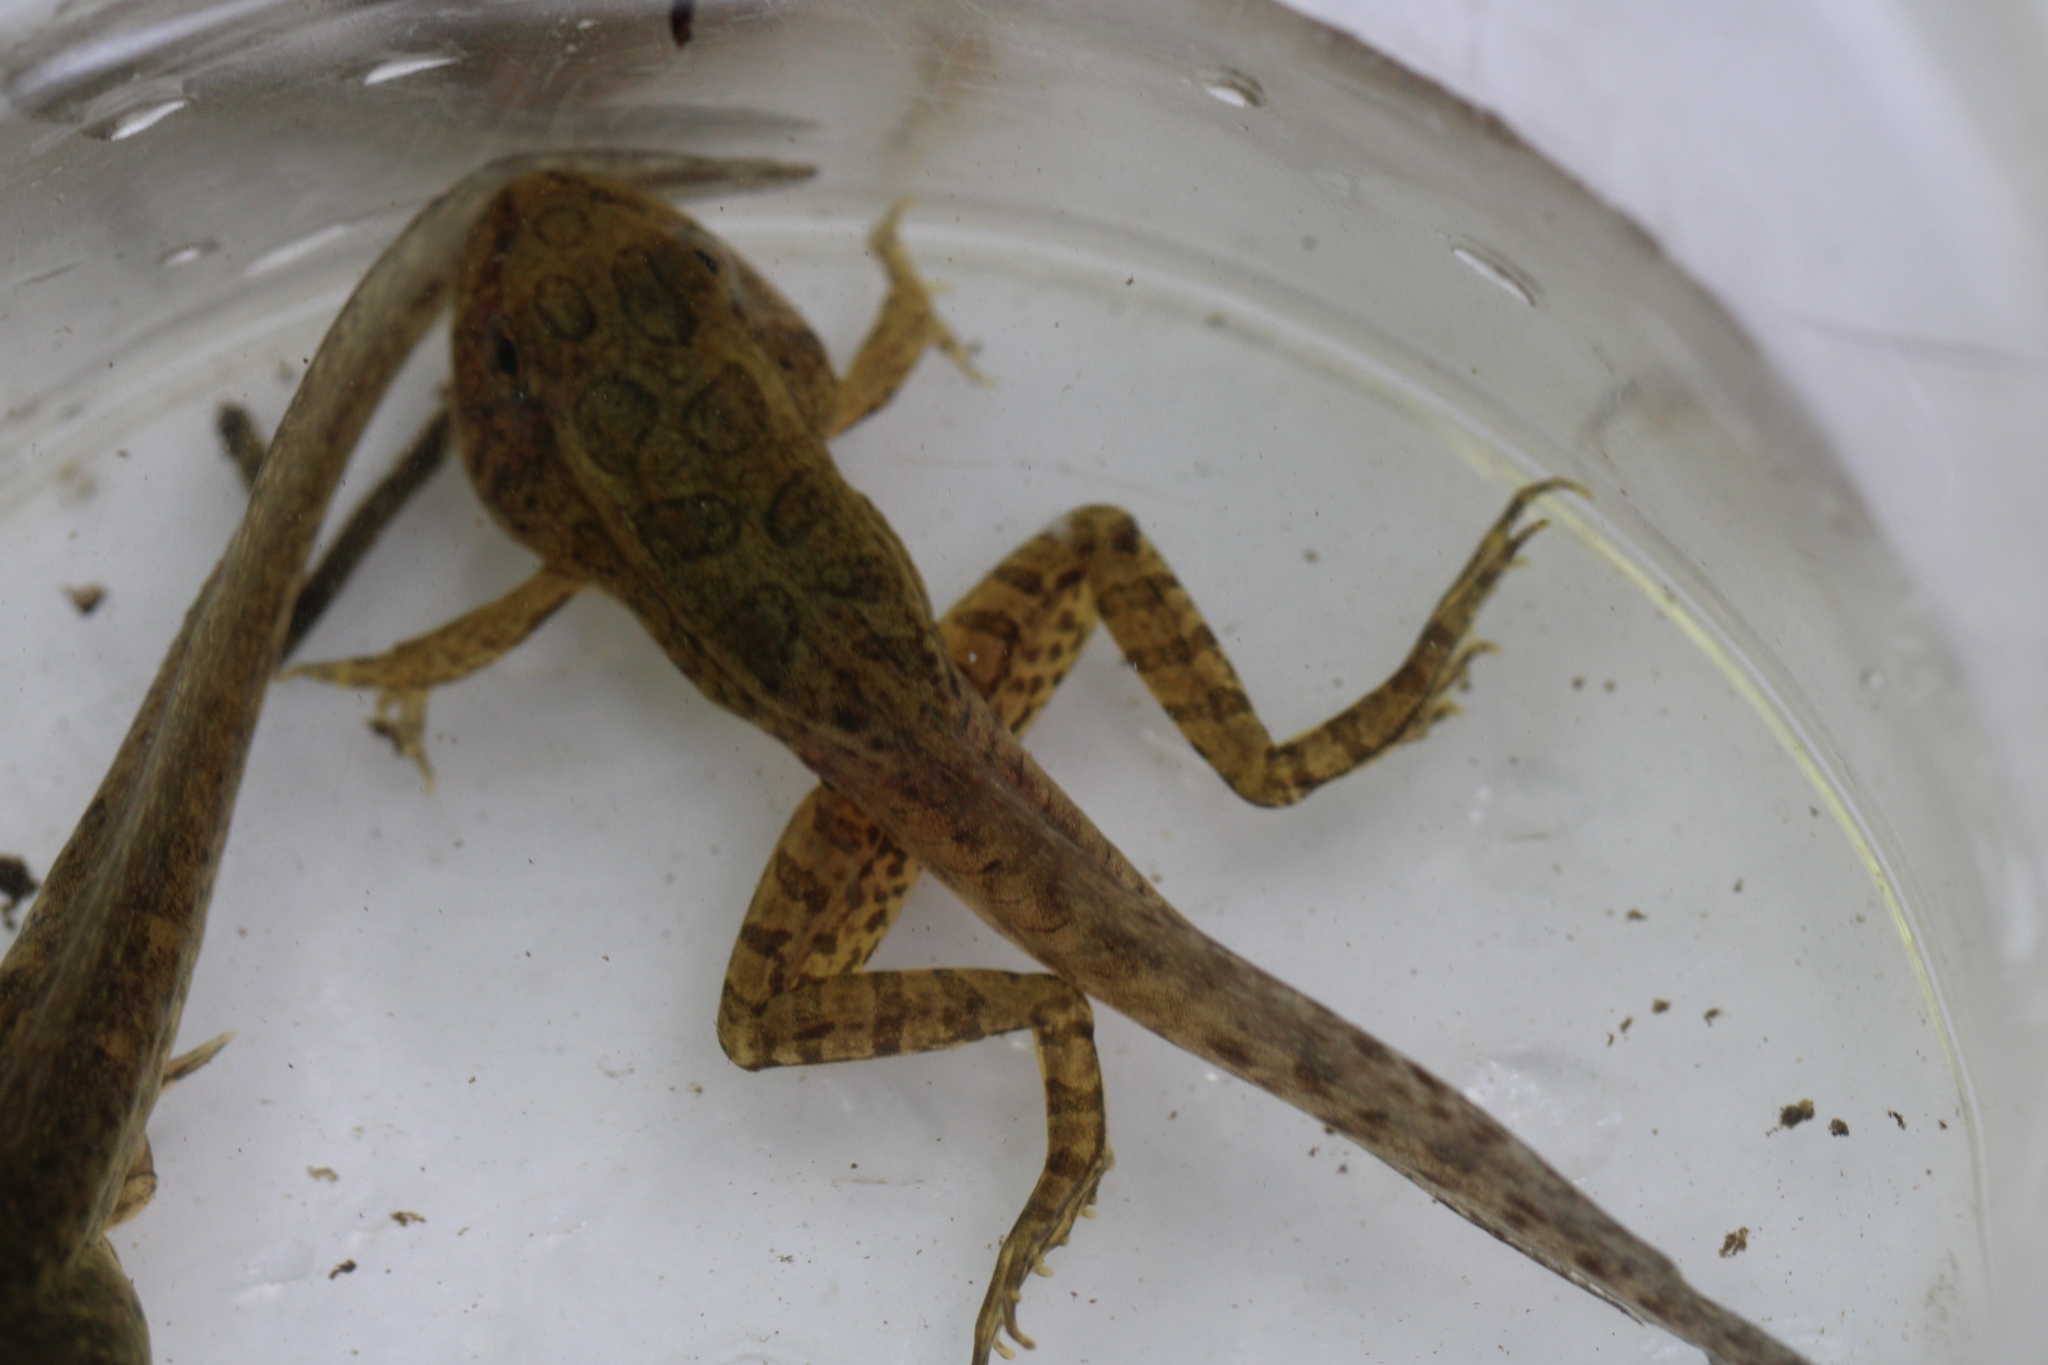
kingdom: Animalia
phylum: Chordata
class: Amphibia
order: Anura
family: Ranidae
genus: Lithobates
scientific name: Lithobates palustris
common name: Pickerel frog
